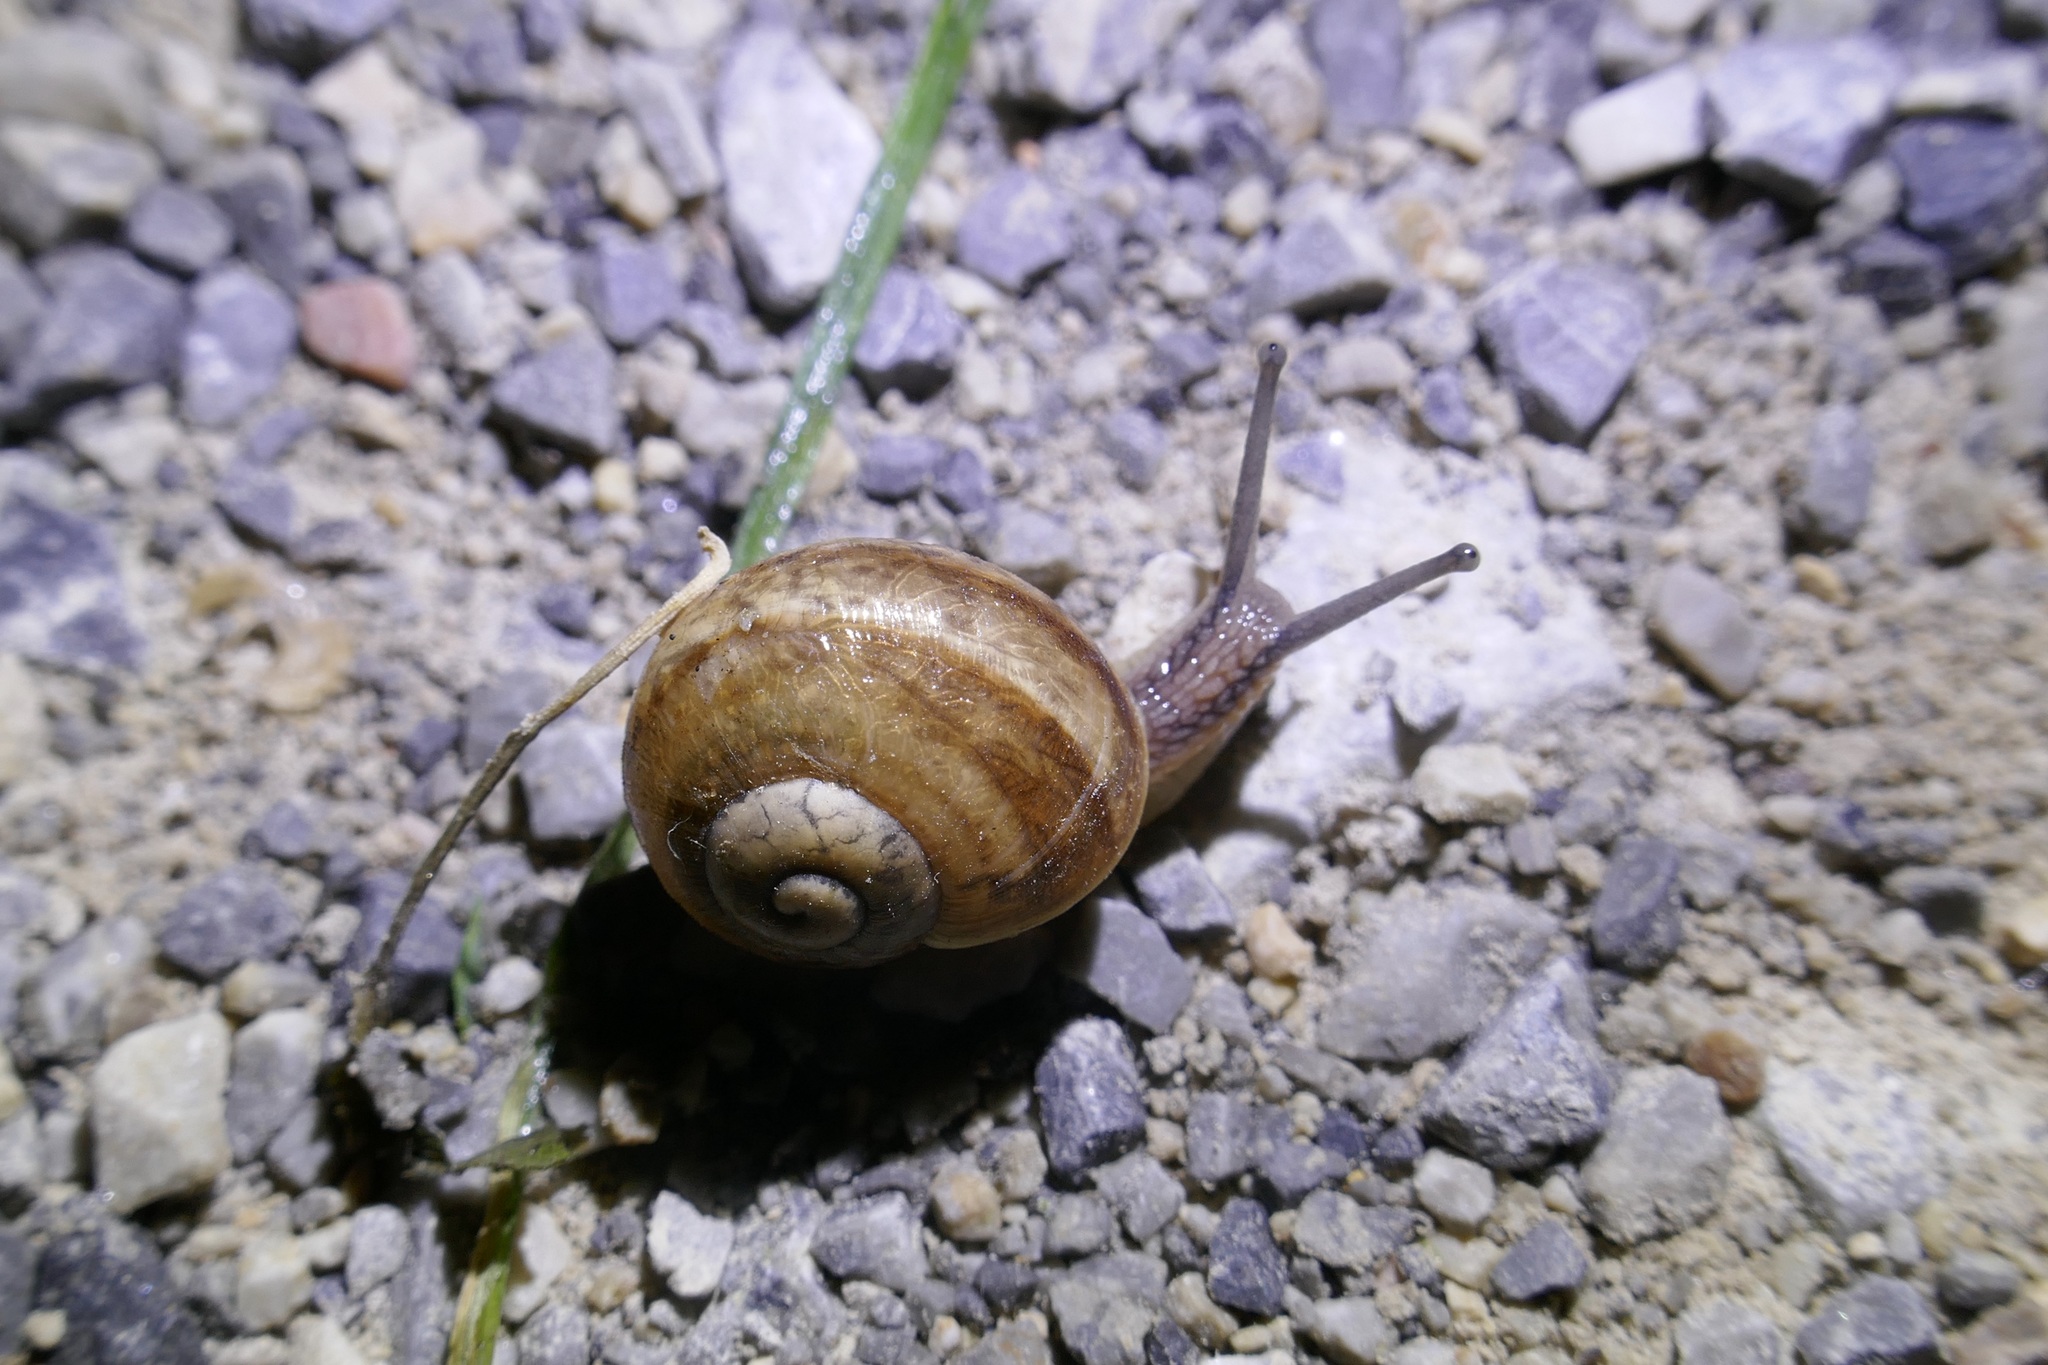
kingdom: Animalia
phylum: Mollusca
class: Gastropoda
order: Stylommatophora
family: Helicidae
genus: Helix
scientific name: Helix pomatia
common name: Roman snail
